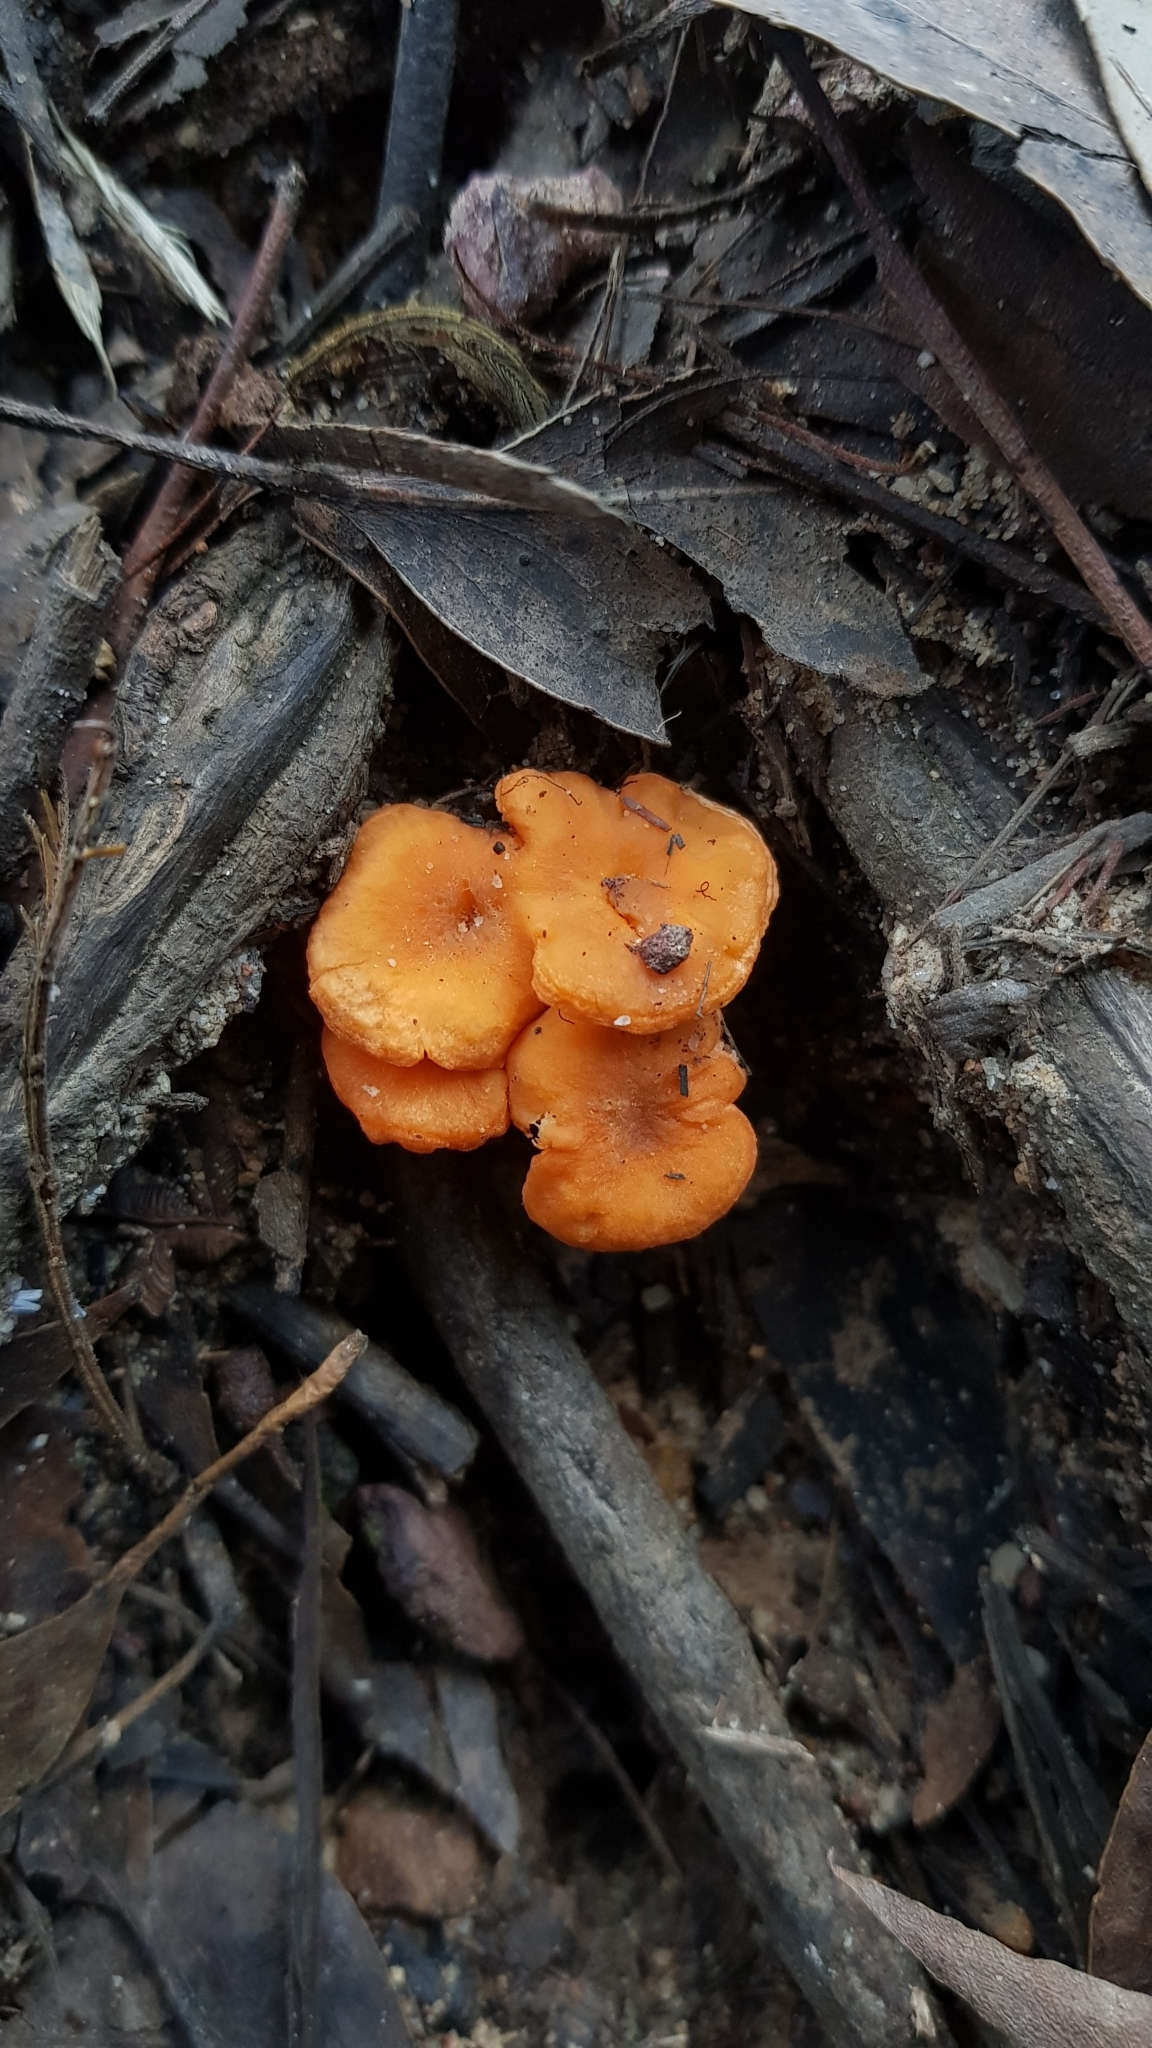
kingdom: Fungi
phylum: Basidiomycota
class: Agaricomycetes
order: Cantharellales
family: Hydnaceae
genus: Cantharellus
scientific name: Cantharellus
